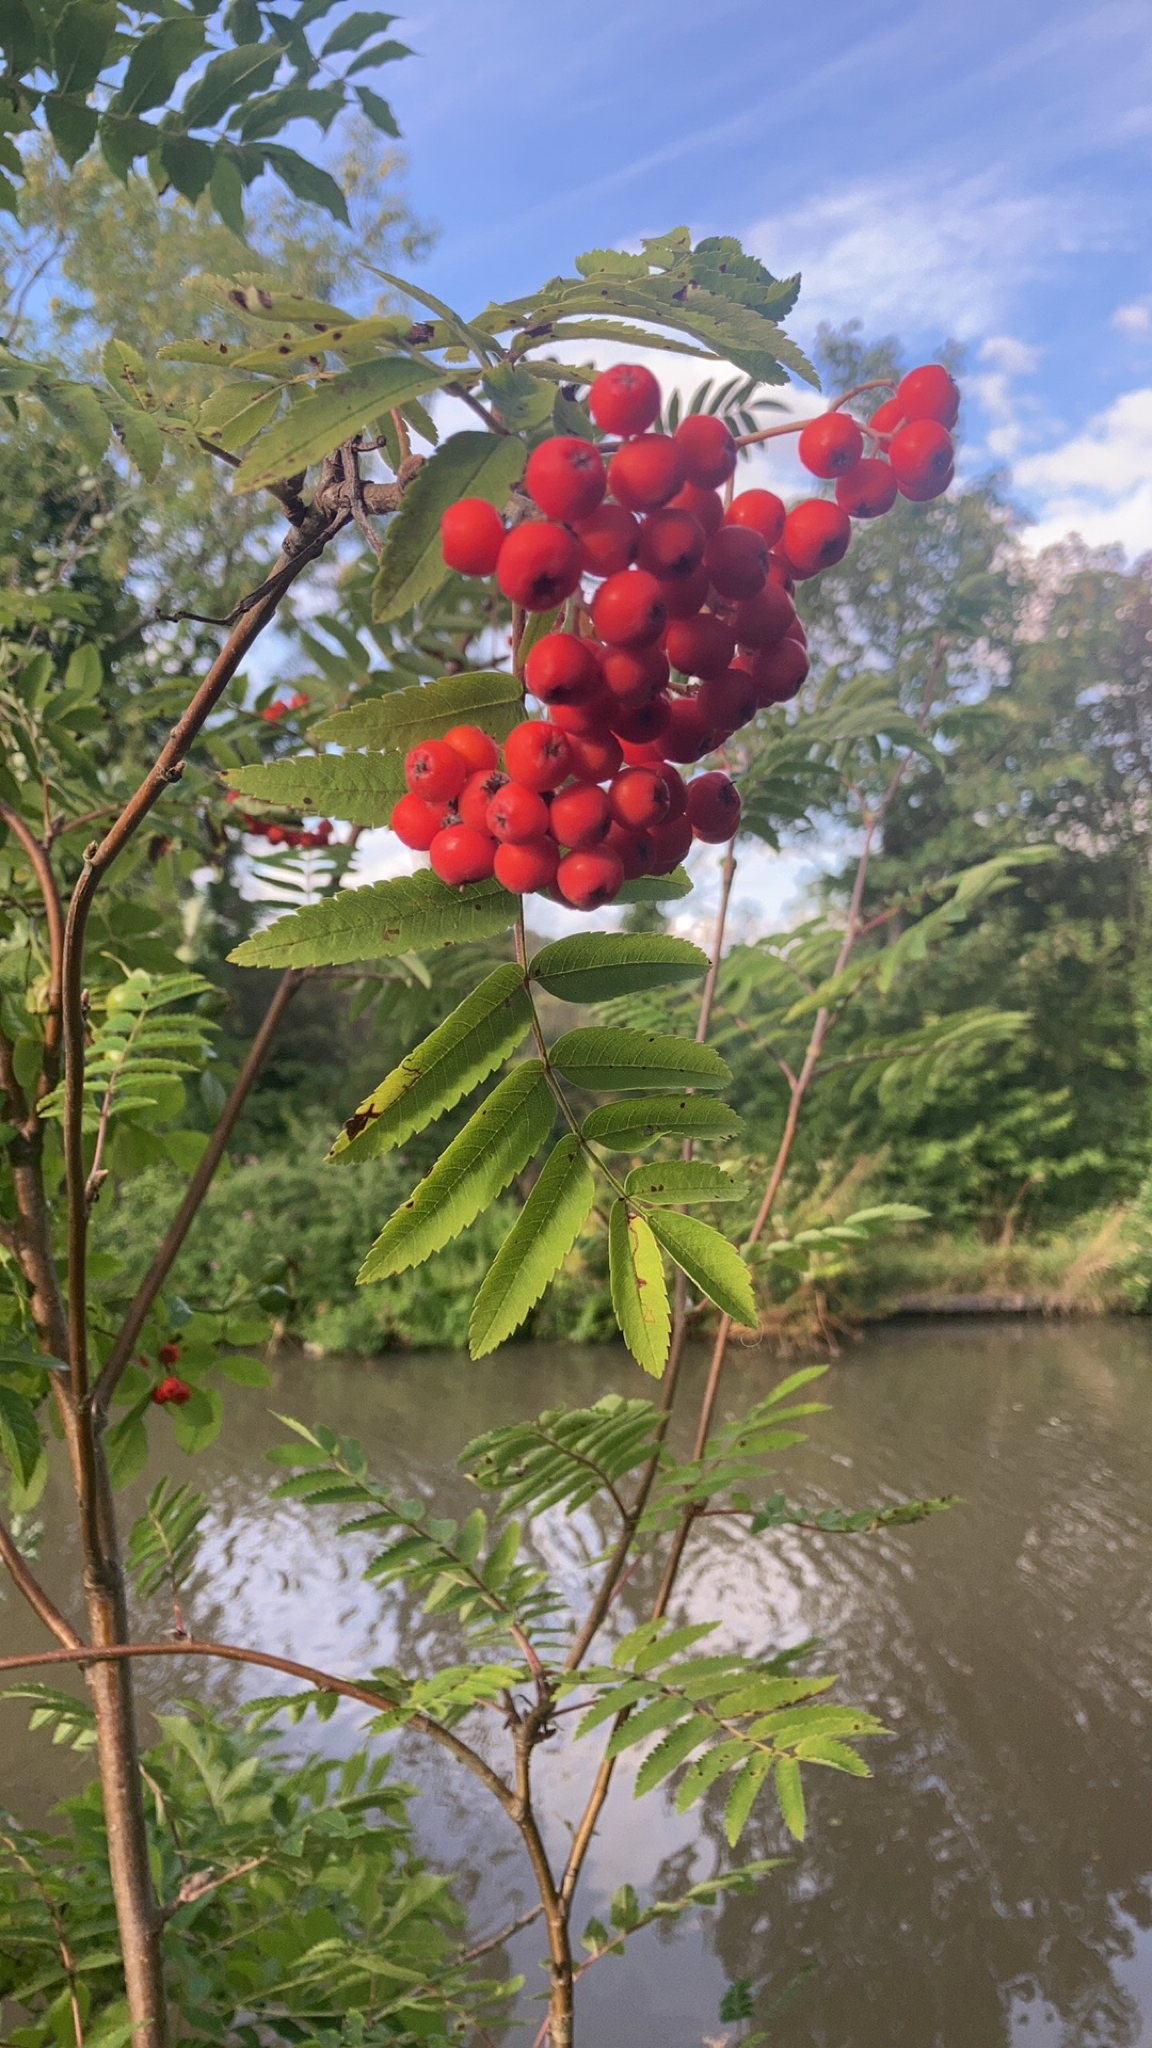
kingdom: Plantae
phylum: Tracheophyta
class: Magnoliopsida
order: Rosales
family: Rosaceae
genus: Sorbus
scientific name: Sorbus aucuparia
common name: Rowan
